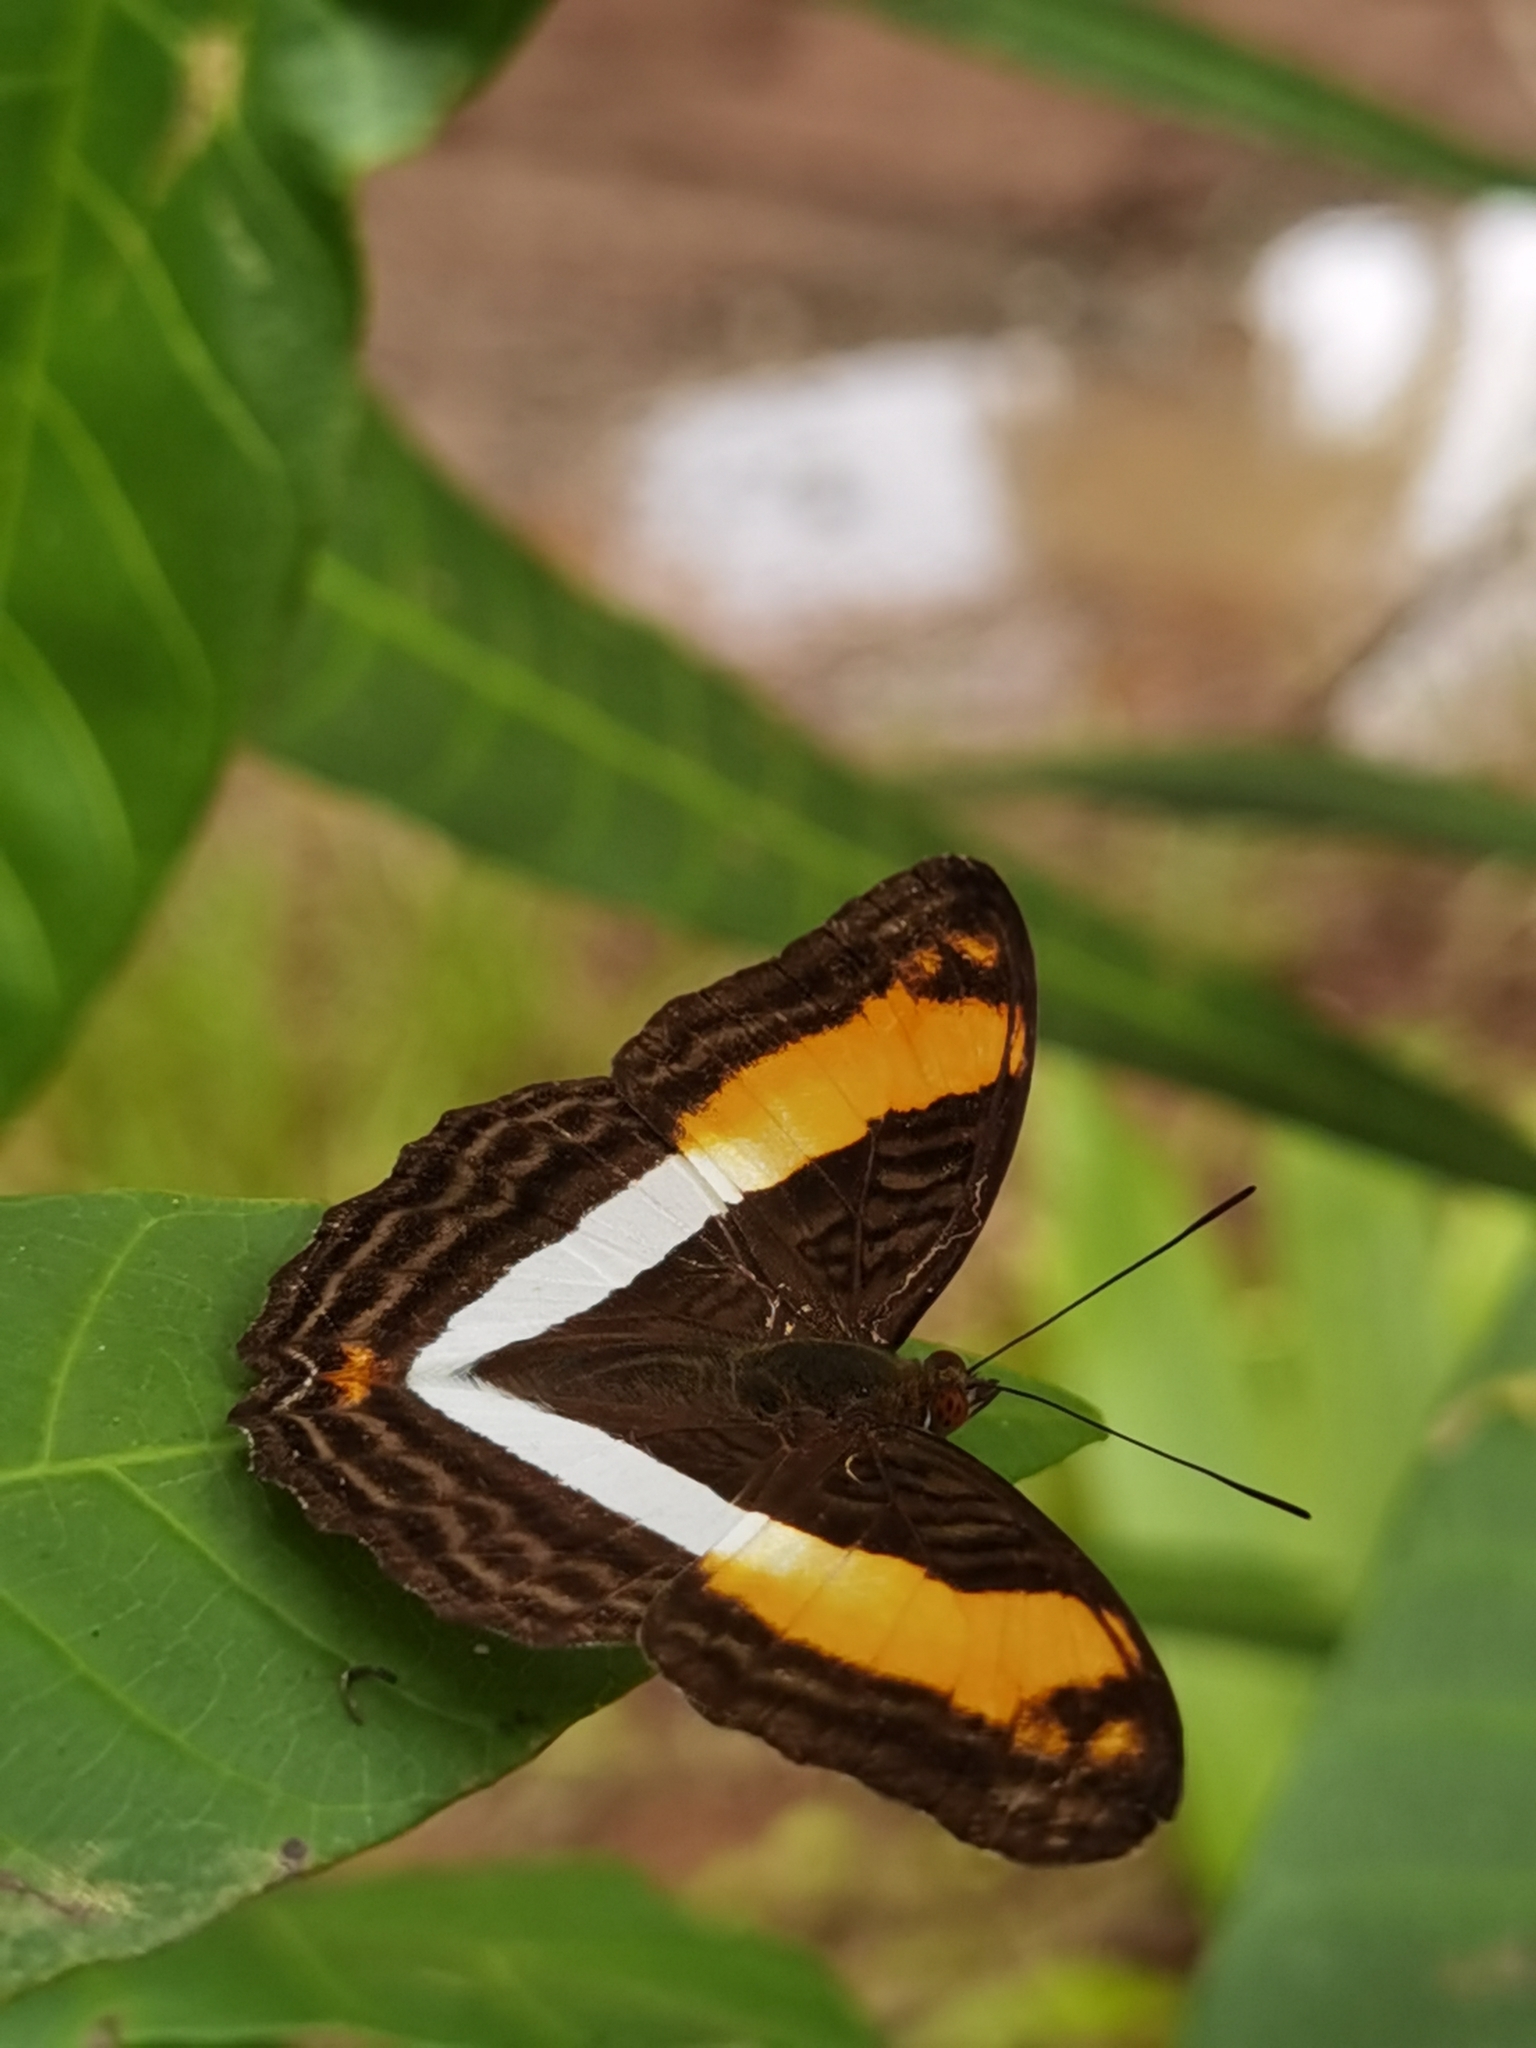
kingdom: Animalia
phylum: Arthropoda
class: Insecta
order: Lepidoptera
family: Nymphalidae
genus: Limenitis
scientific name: Limenitis malea
